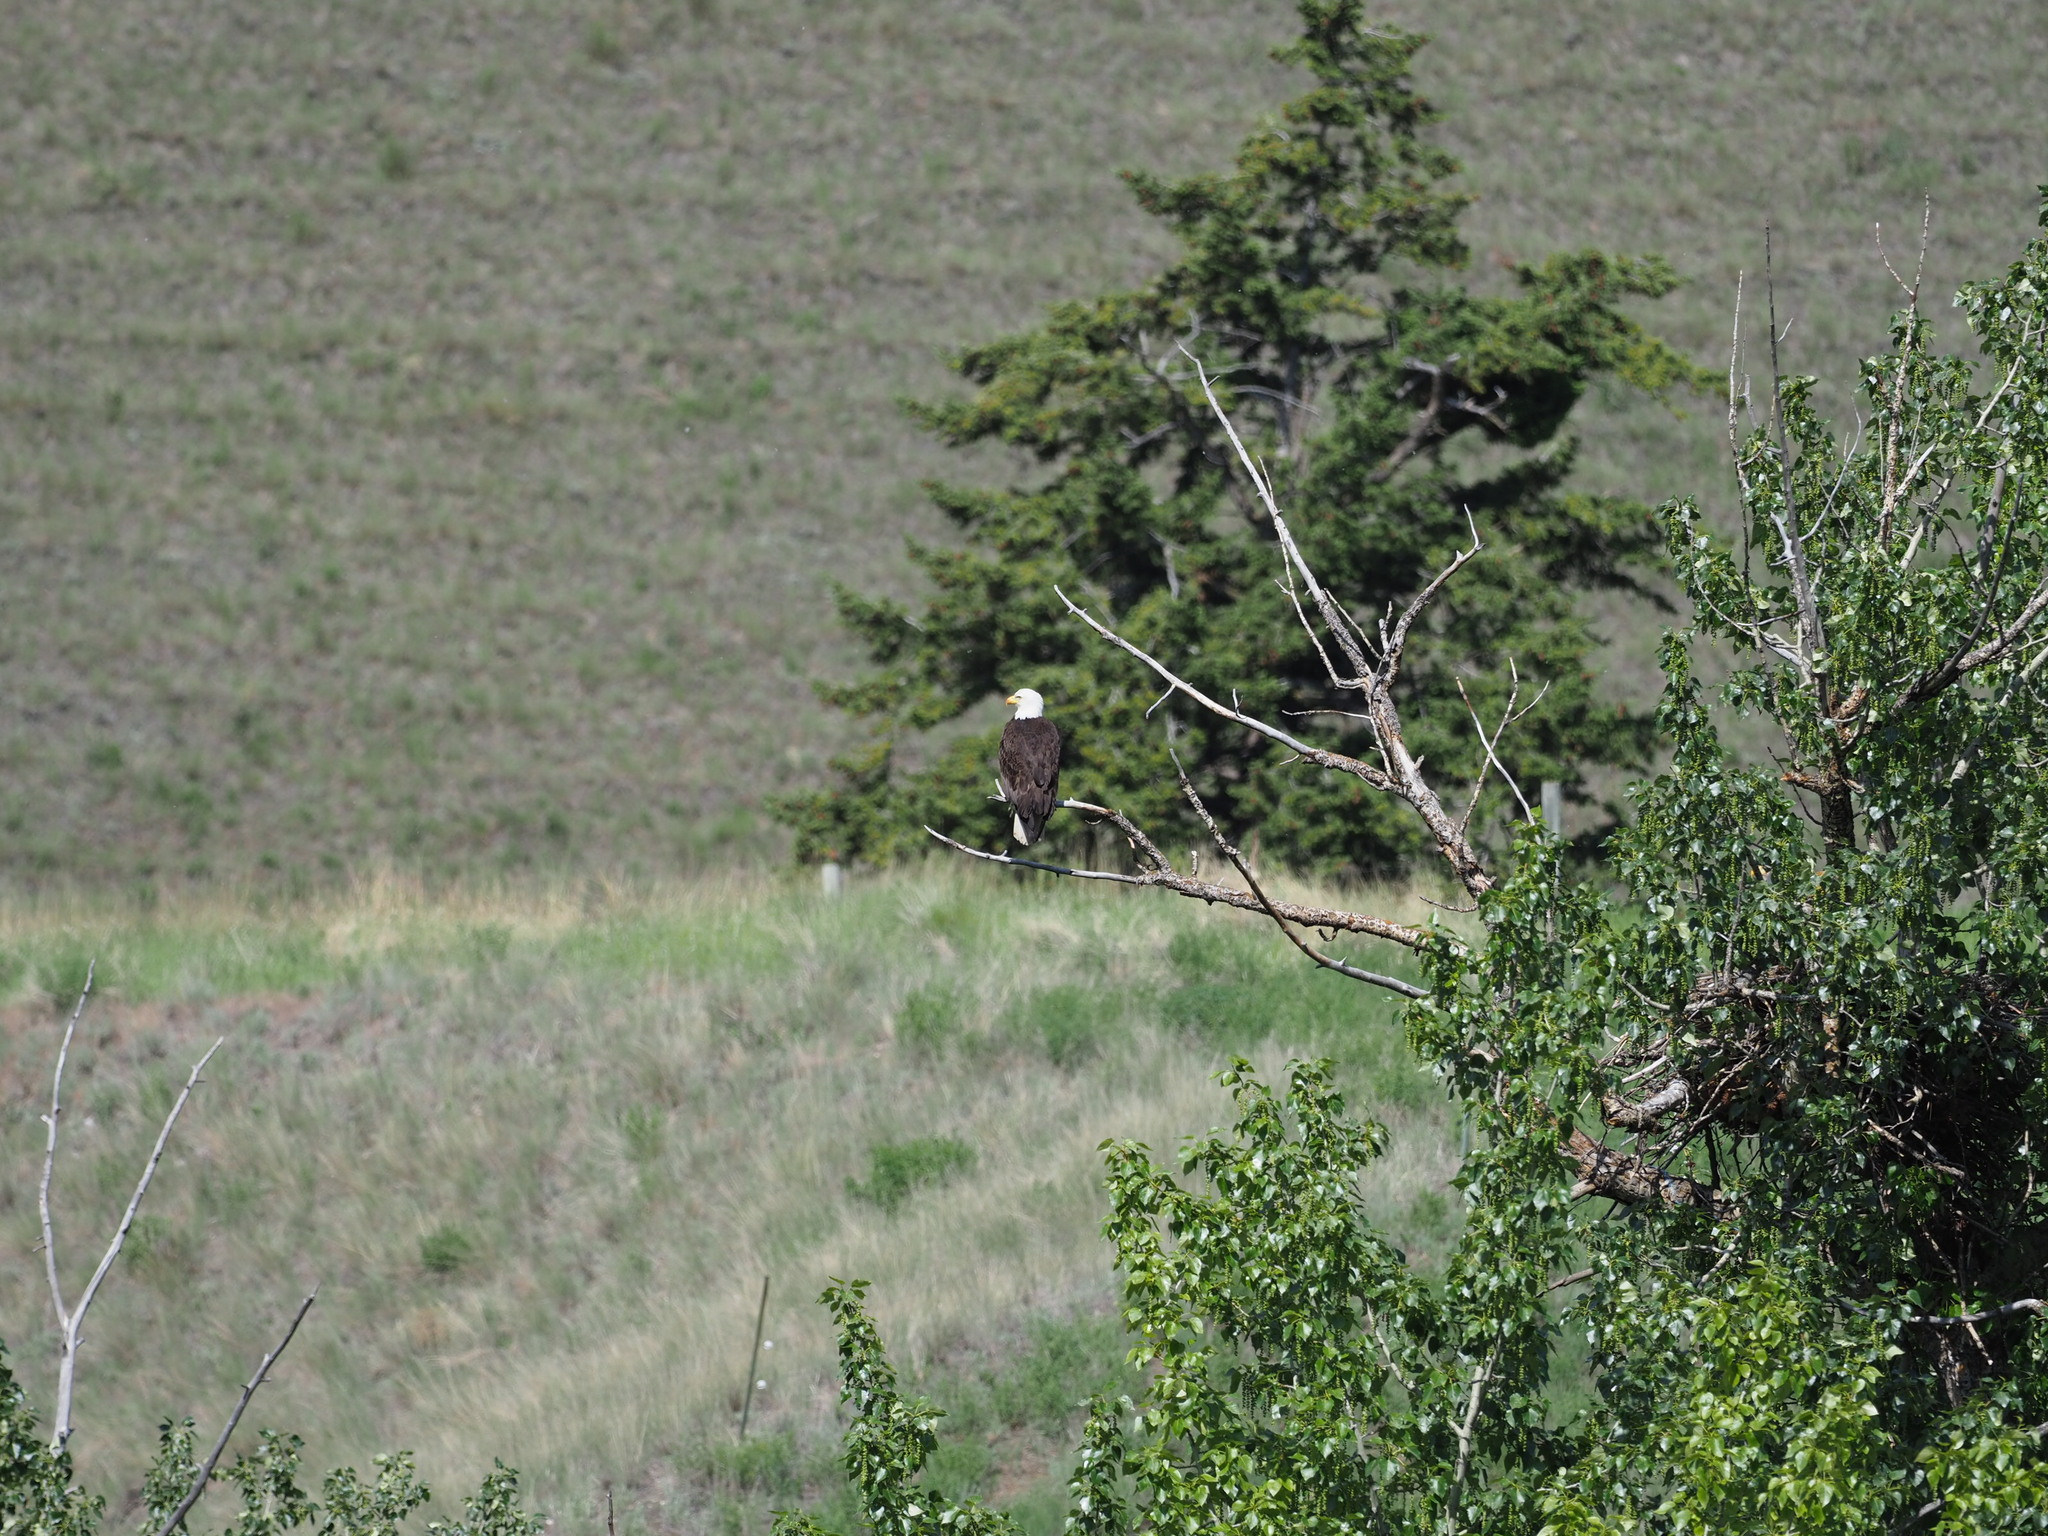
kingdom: Animalia
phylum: Chordata
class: Aves
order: Accipitriformes
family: Accipitridae
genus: Haliaeetus
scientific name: Haliaeetus leucocephalus
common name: Bald eagle
